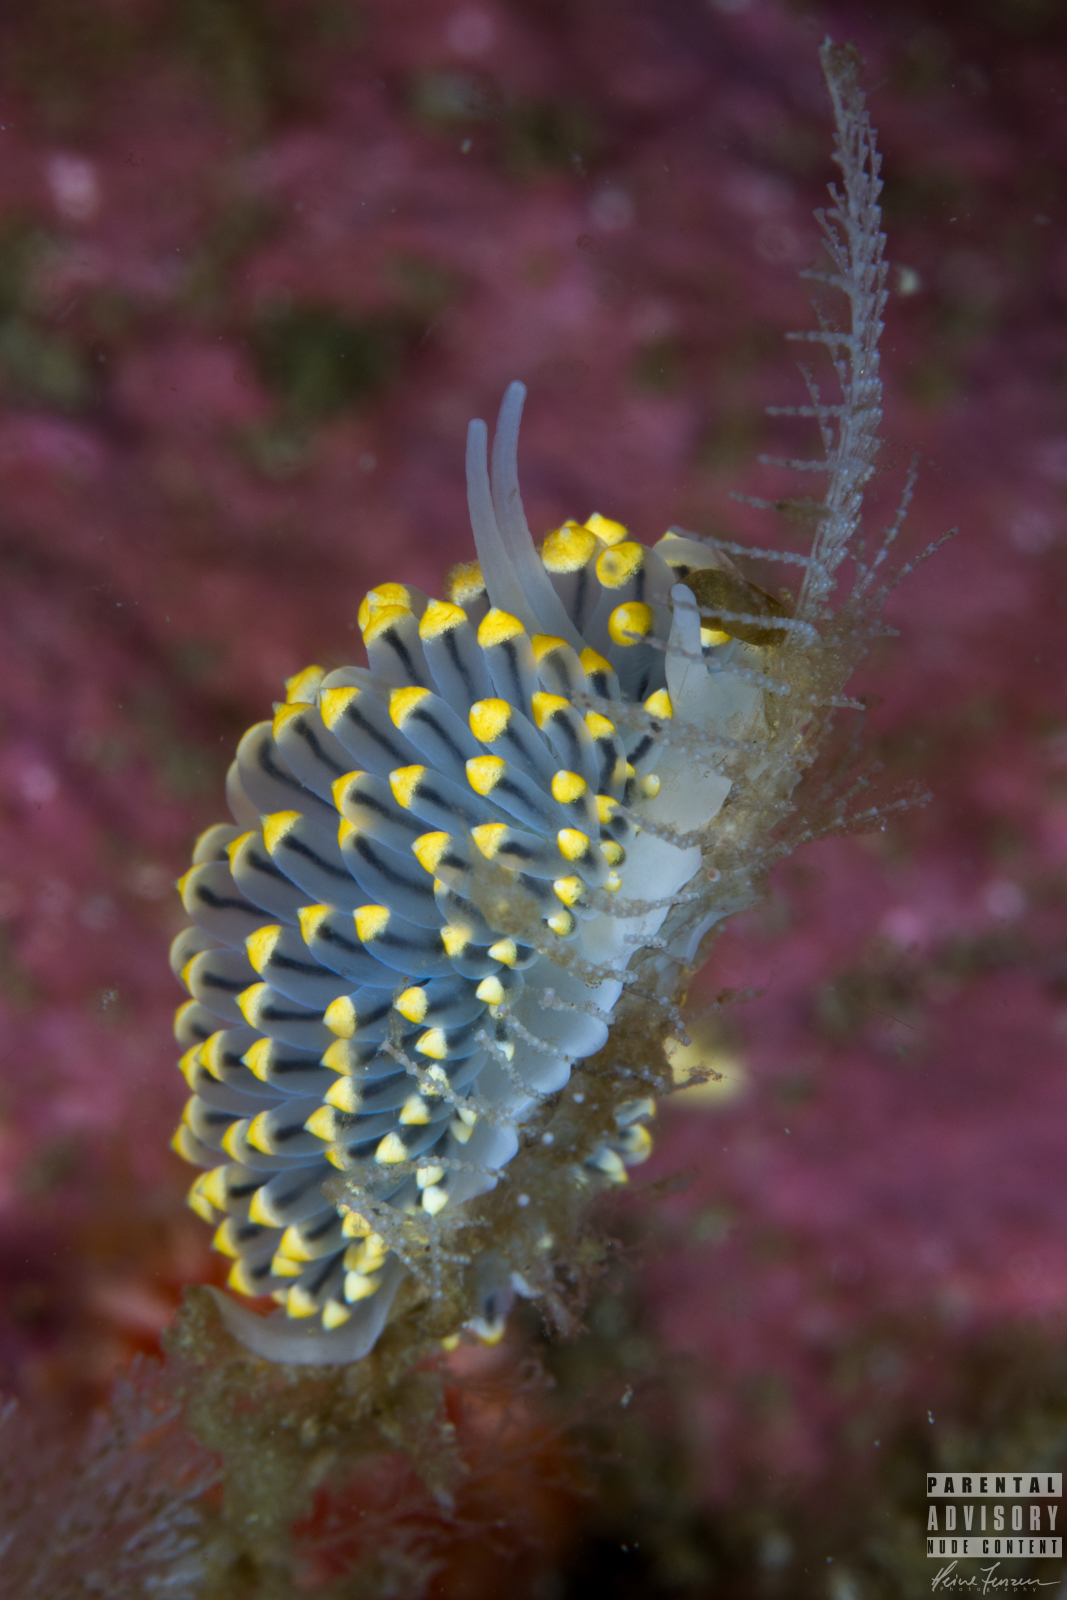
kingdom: Animalia
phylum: Mollusca
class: Gastropoda
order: Nudibranchia
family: Eubranchidae
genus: Eubranchus
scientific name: Eubranchus tricolor
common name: Painted balloon aeolis
